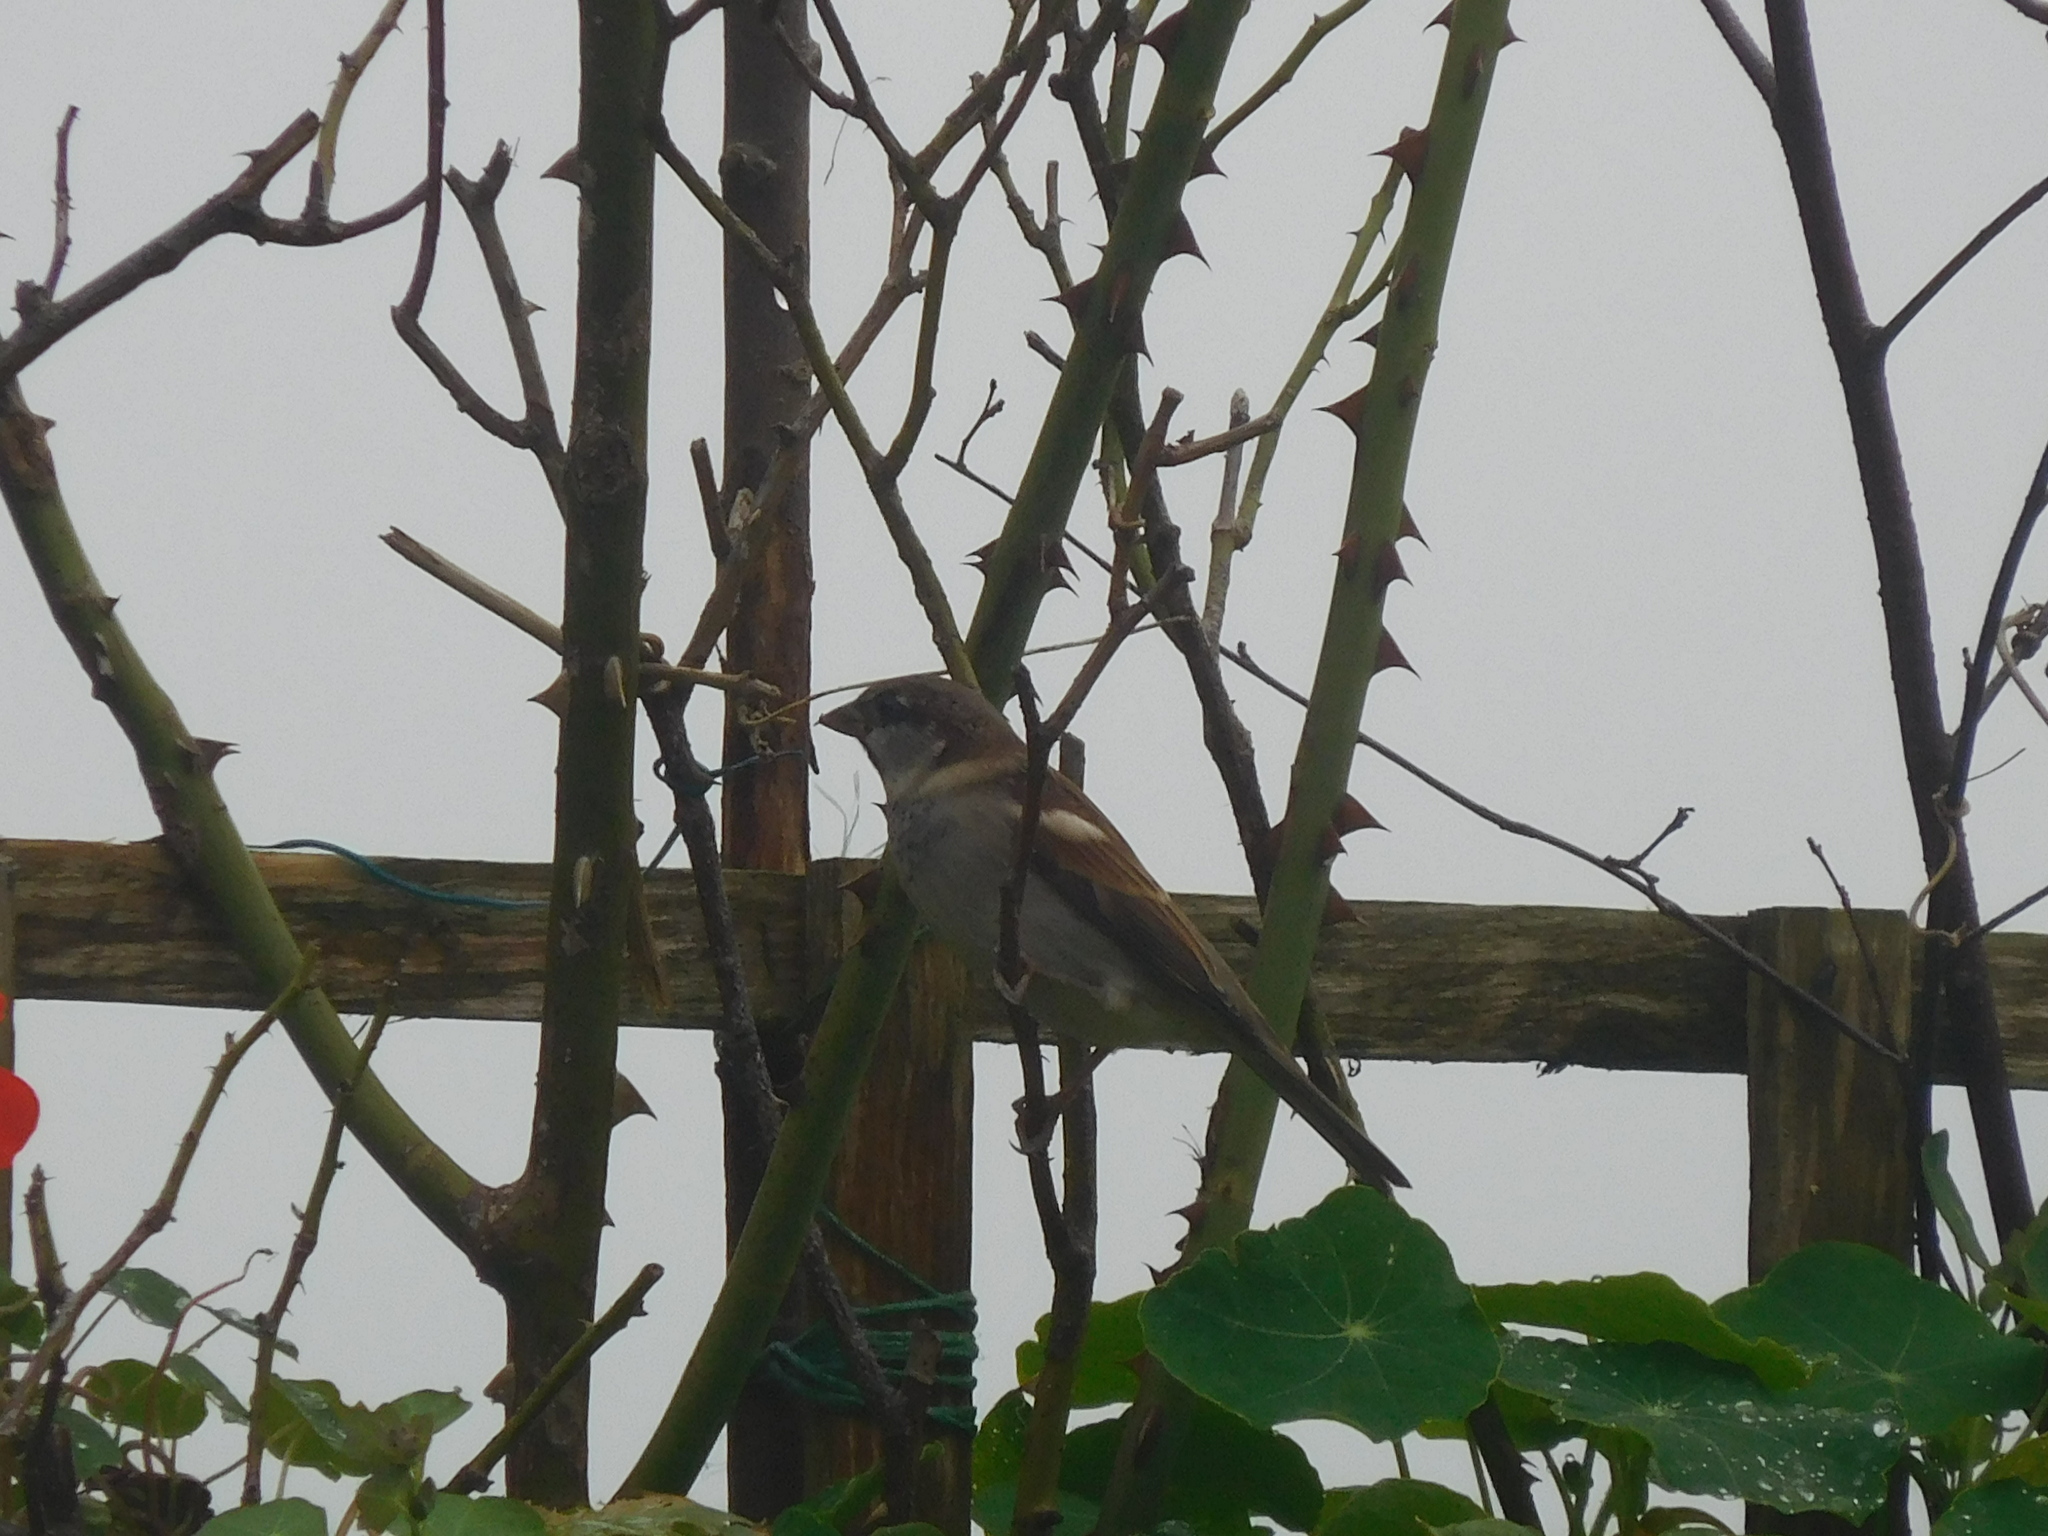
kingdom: Animalia
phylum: Chordata
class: Aves
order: Passeriformes
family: Passeridae
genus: Passer
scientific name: Passer domesticus
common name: House sparrow
